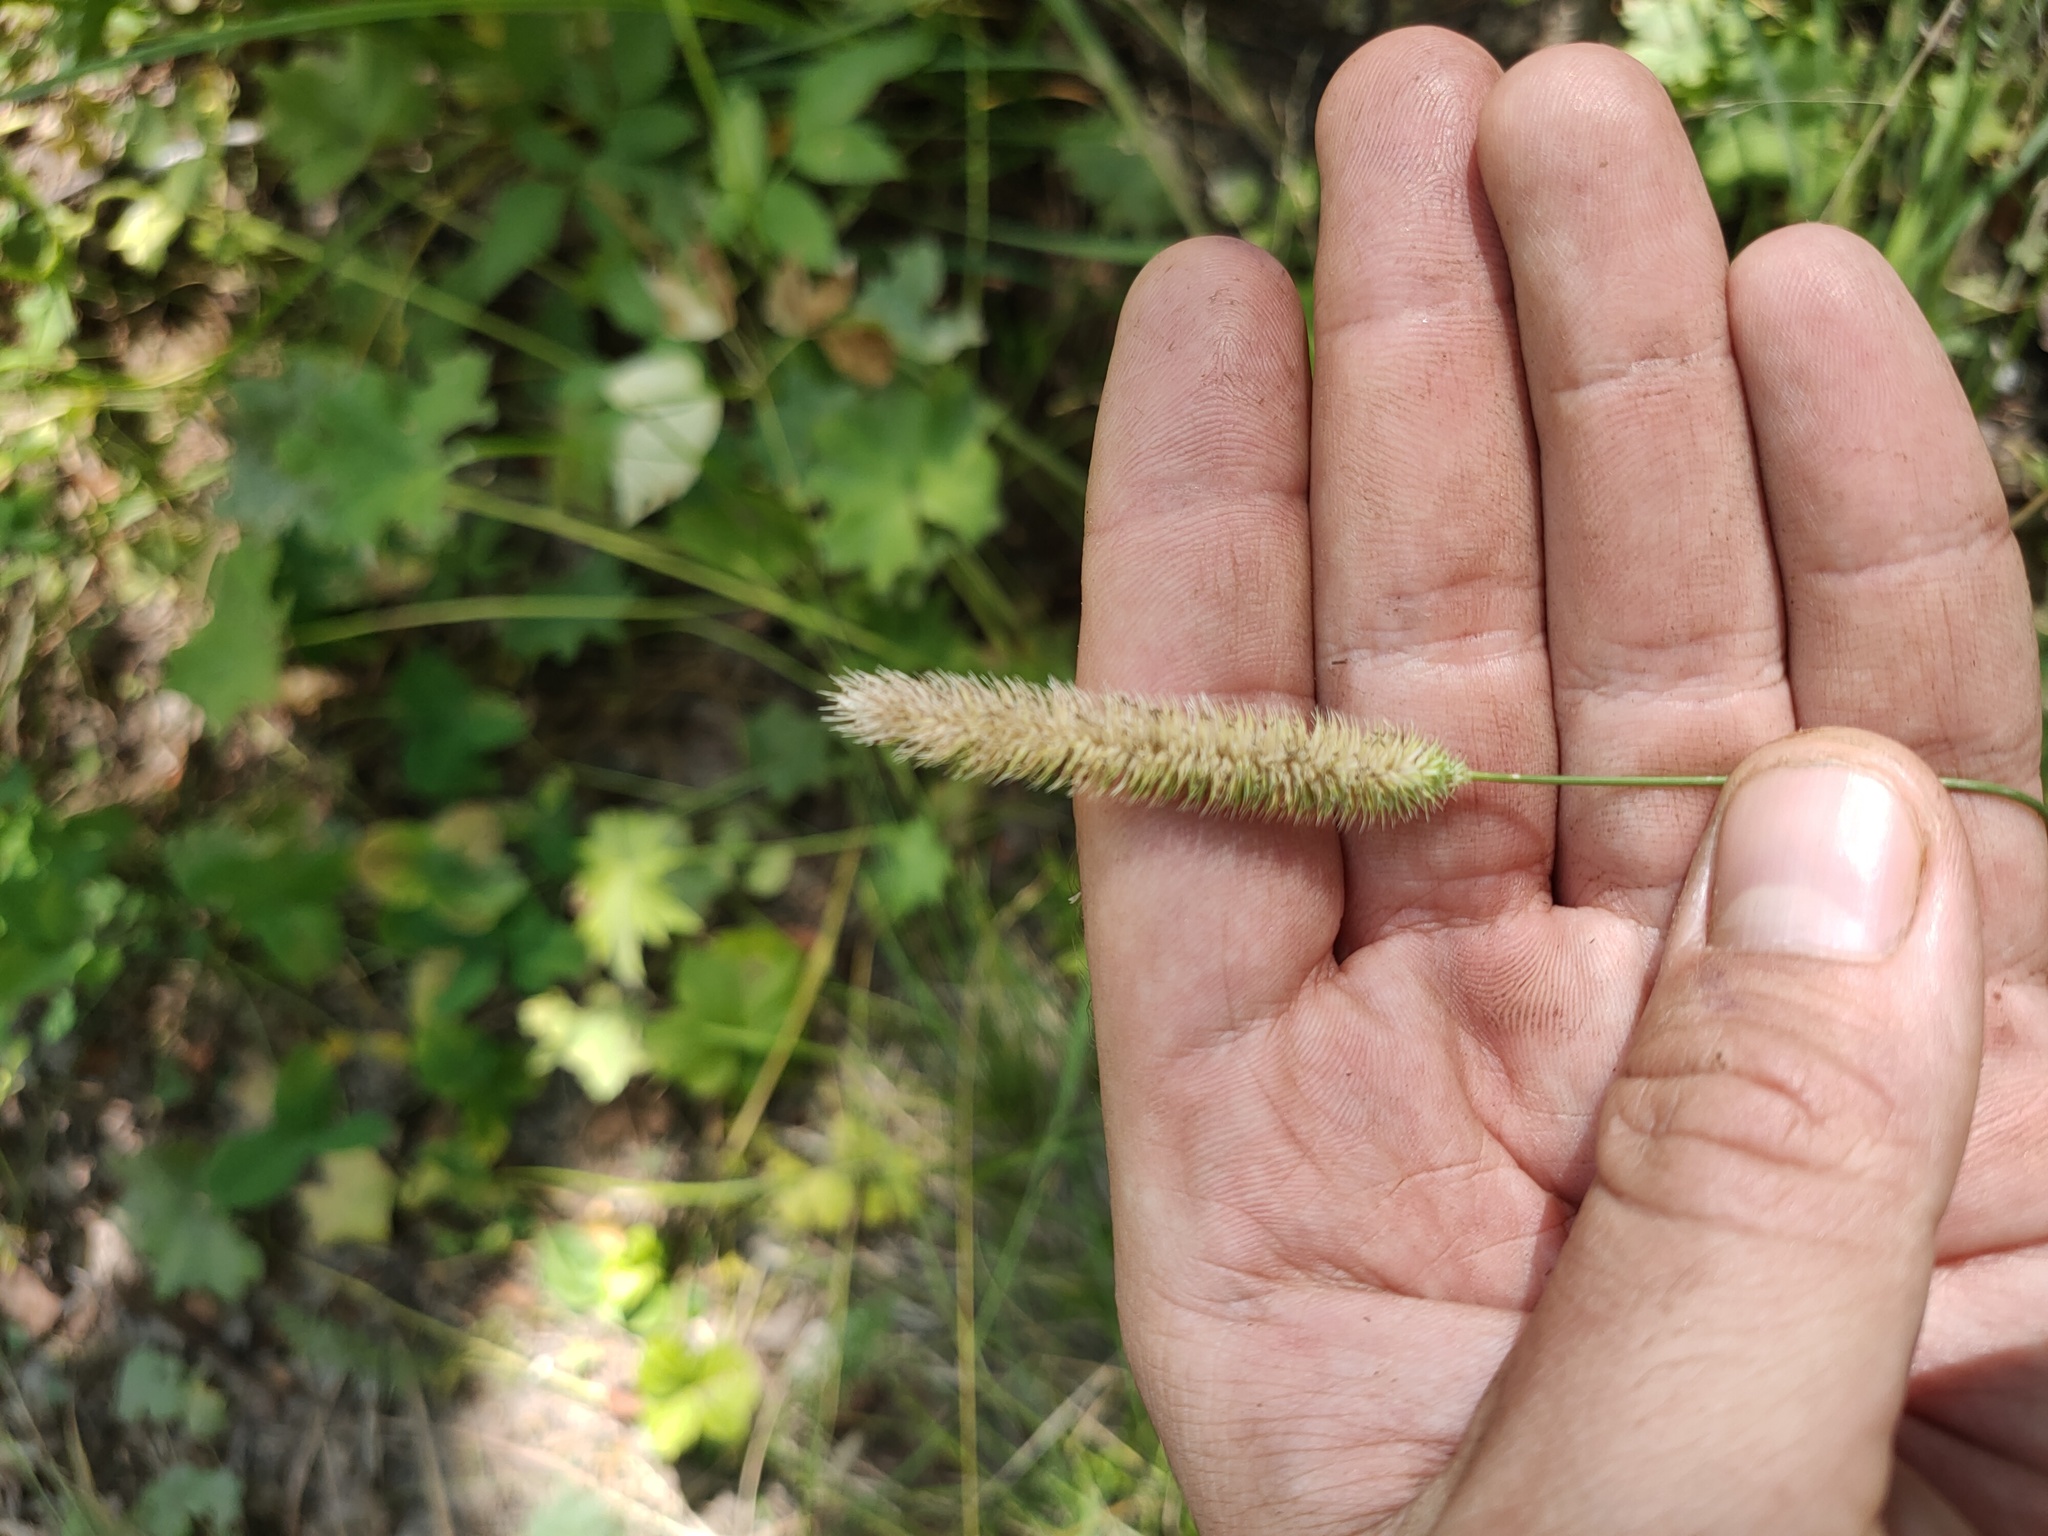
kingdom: Plantae
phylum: Tracheophyta
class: Liliopsida
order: Poales
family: Poaceae
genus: Phleum
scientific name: Phleum pratense
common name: Timothy grass
